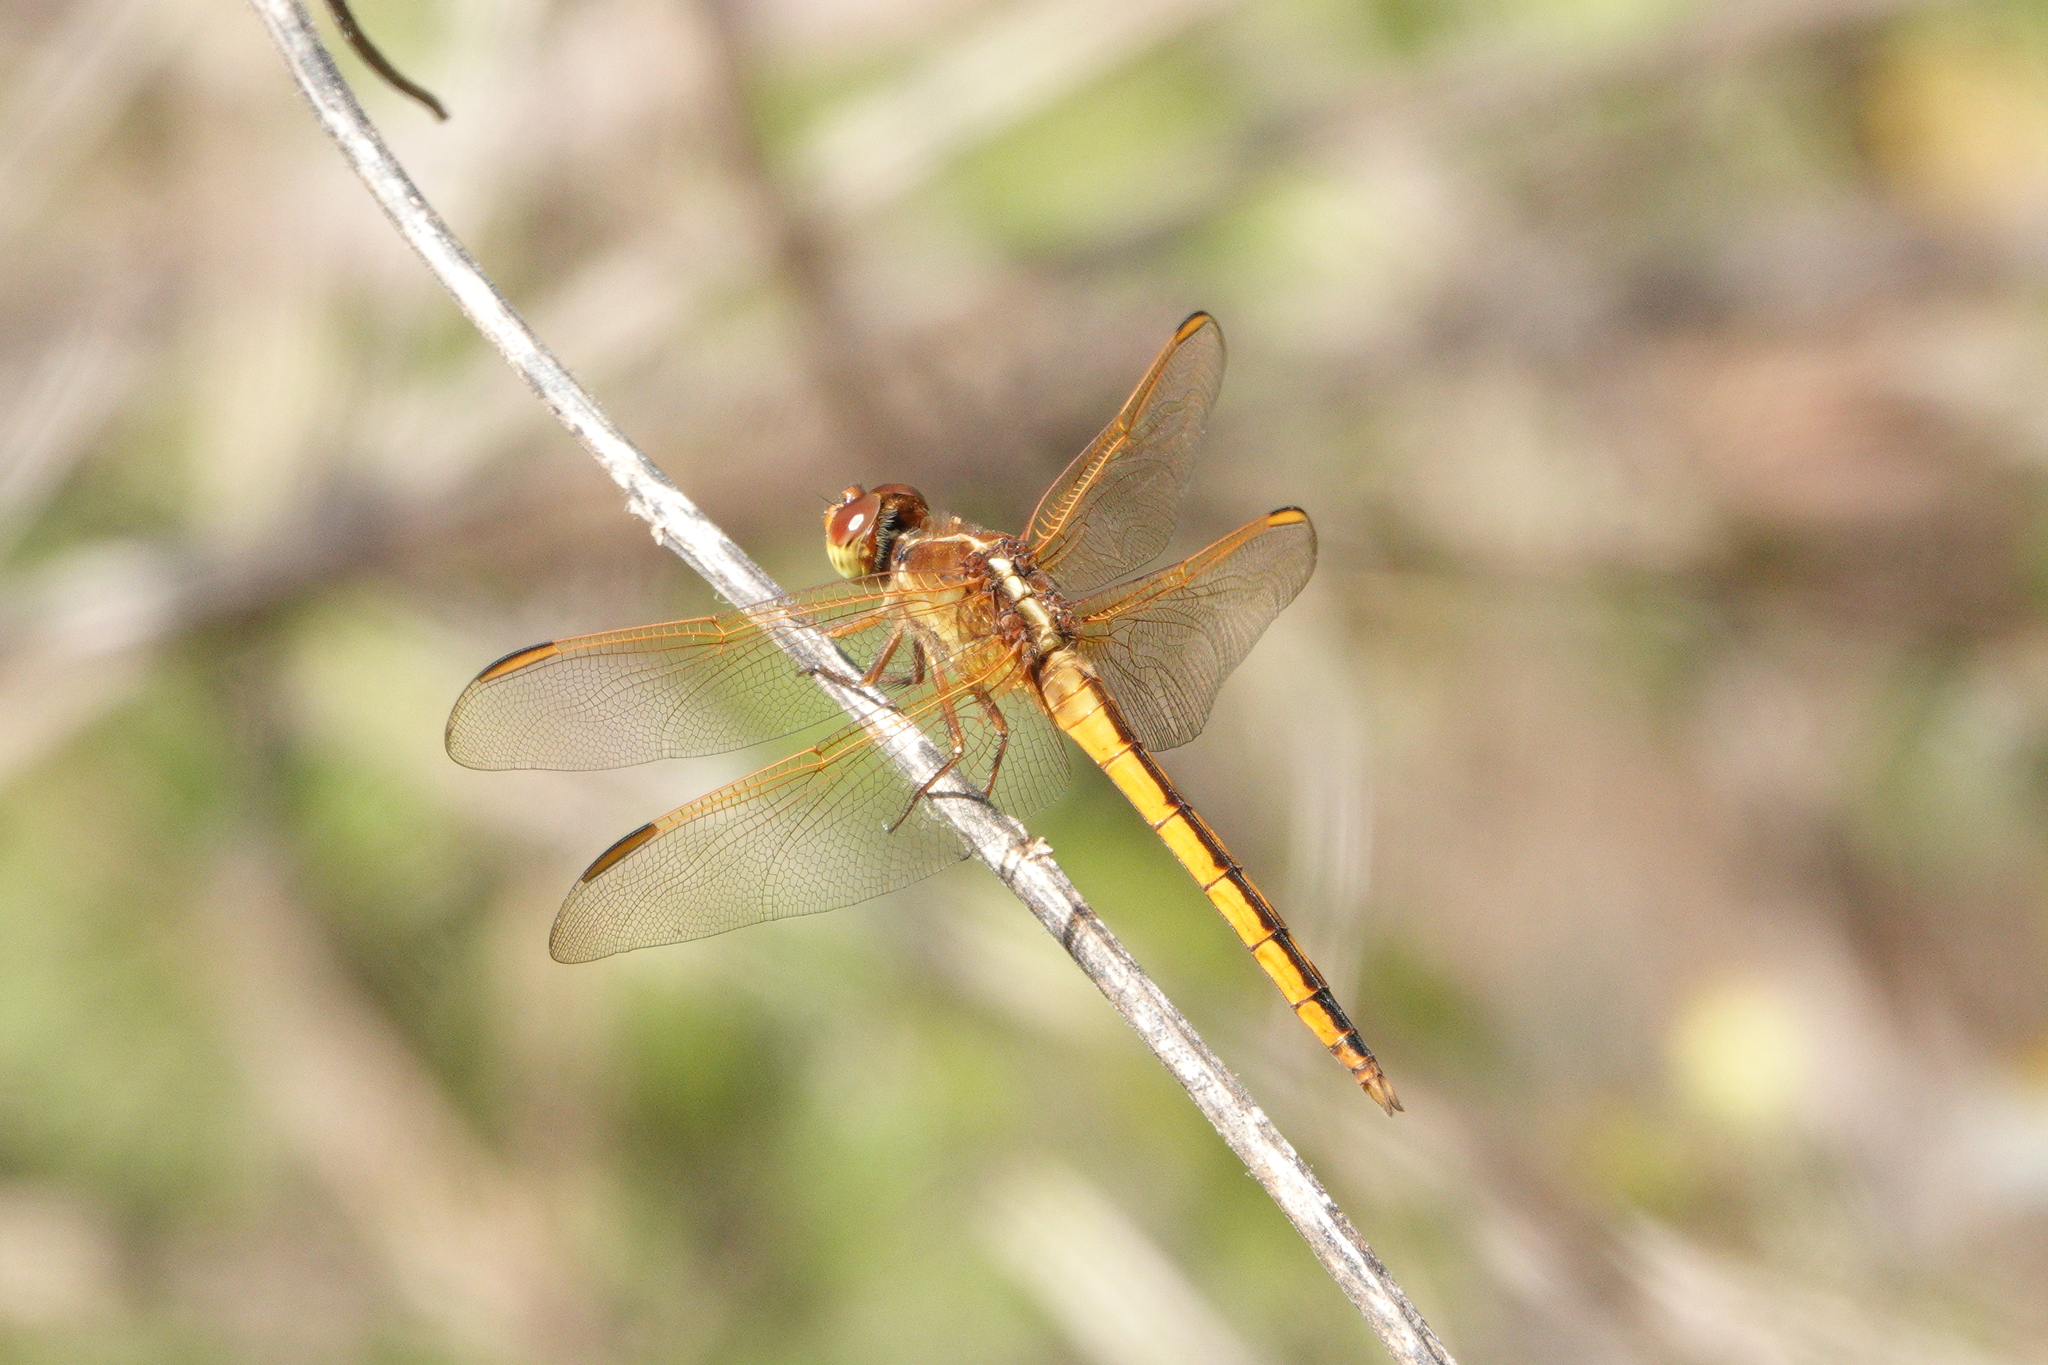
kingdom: Animalia
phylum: Arthropoda
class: Insecta
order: Odonata
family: Libellulidae
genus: Libellula
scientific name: Libellula needhami
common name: Needham's skimmer
